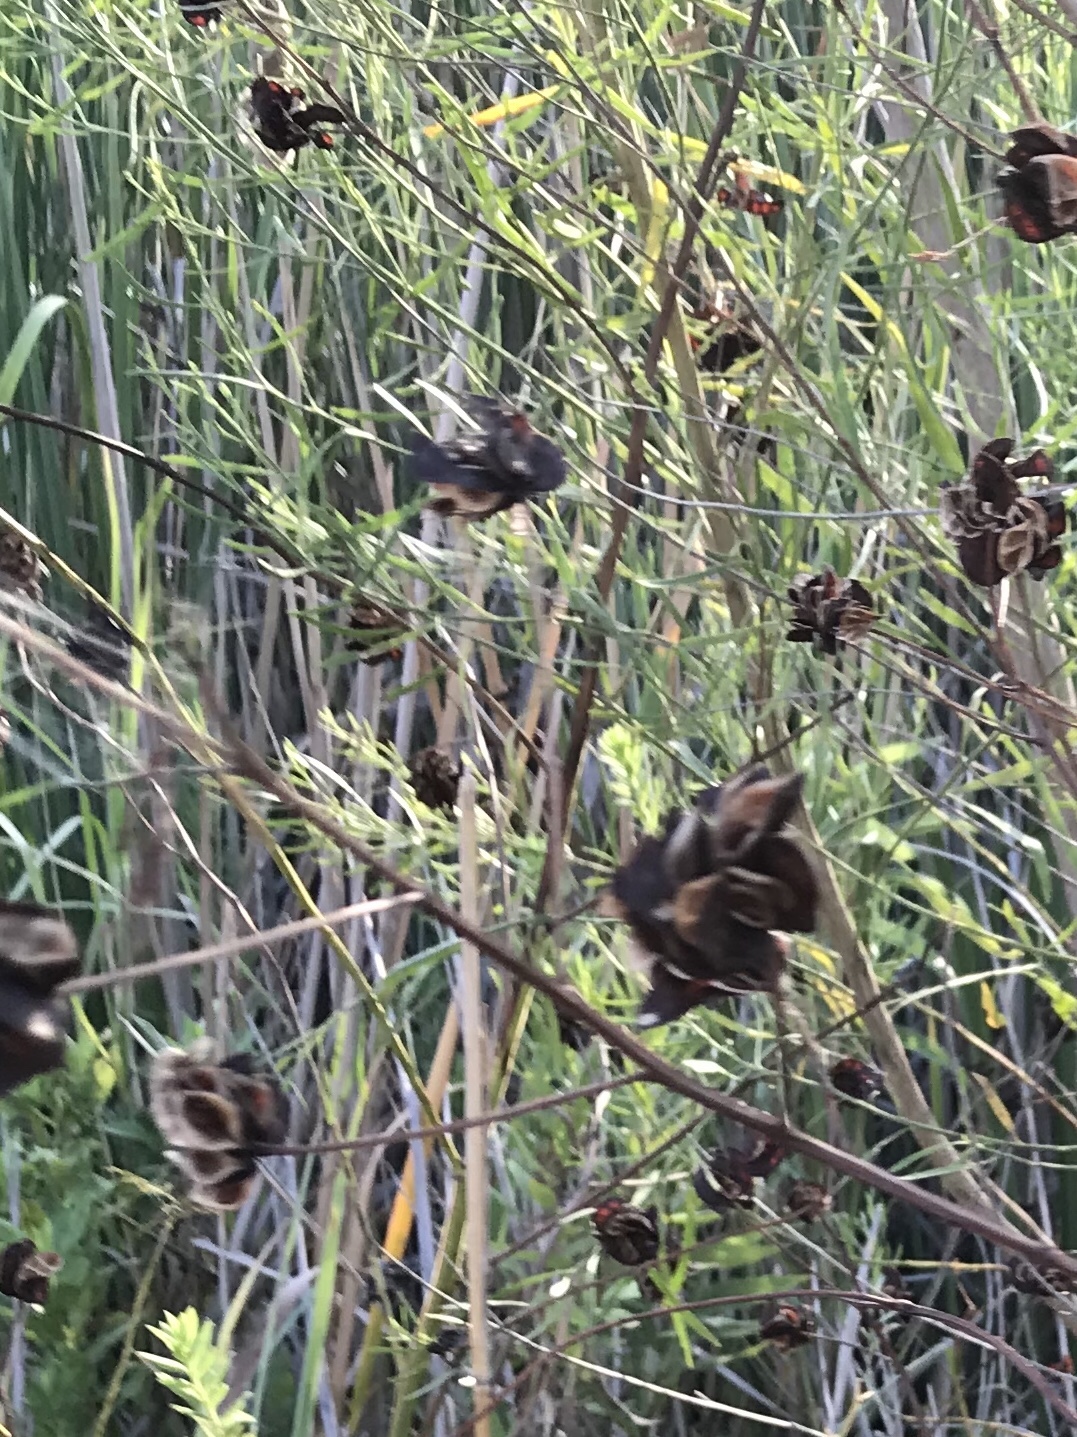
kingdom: Plantae
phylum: Tracheophyta
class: Magnoliopsida
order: Fabales
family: Fabaceae
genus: Desmanthus
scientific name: Desmanthus illinoensis
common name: Illinois bundle-flower
